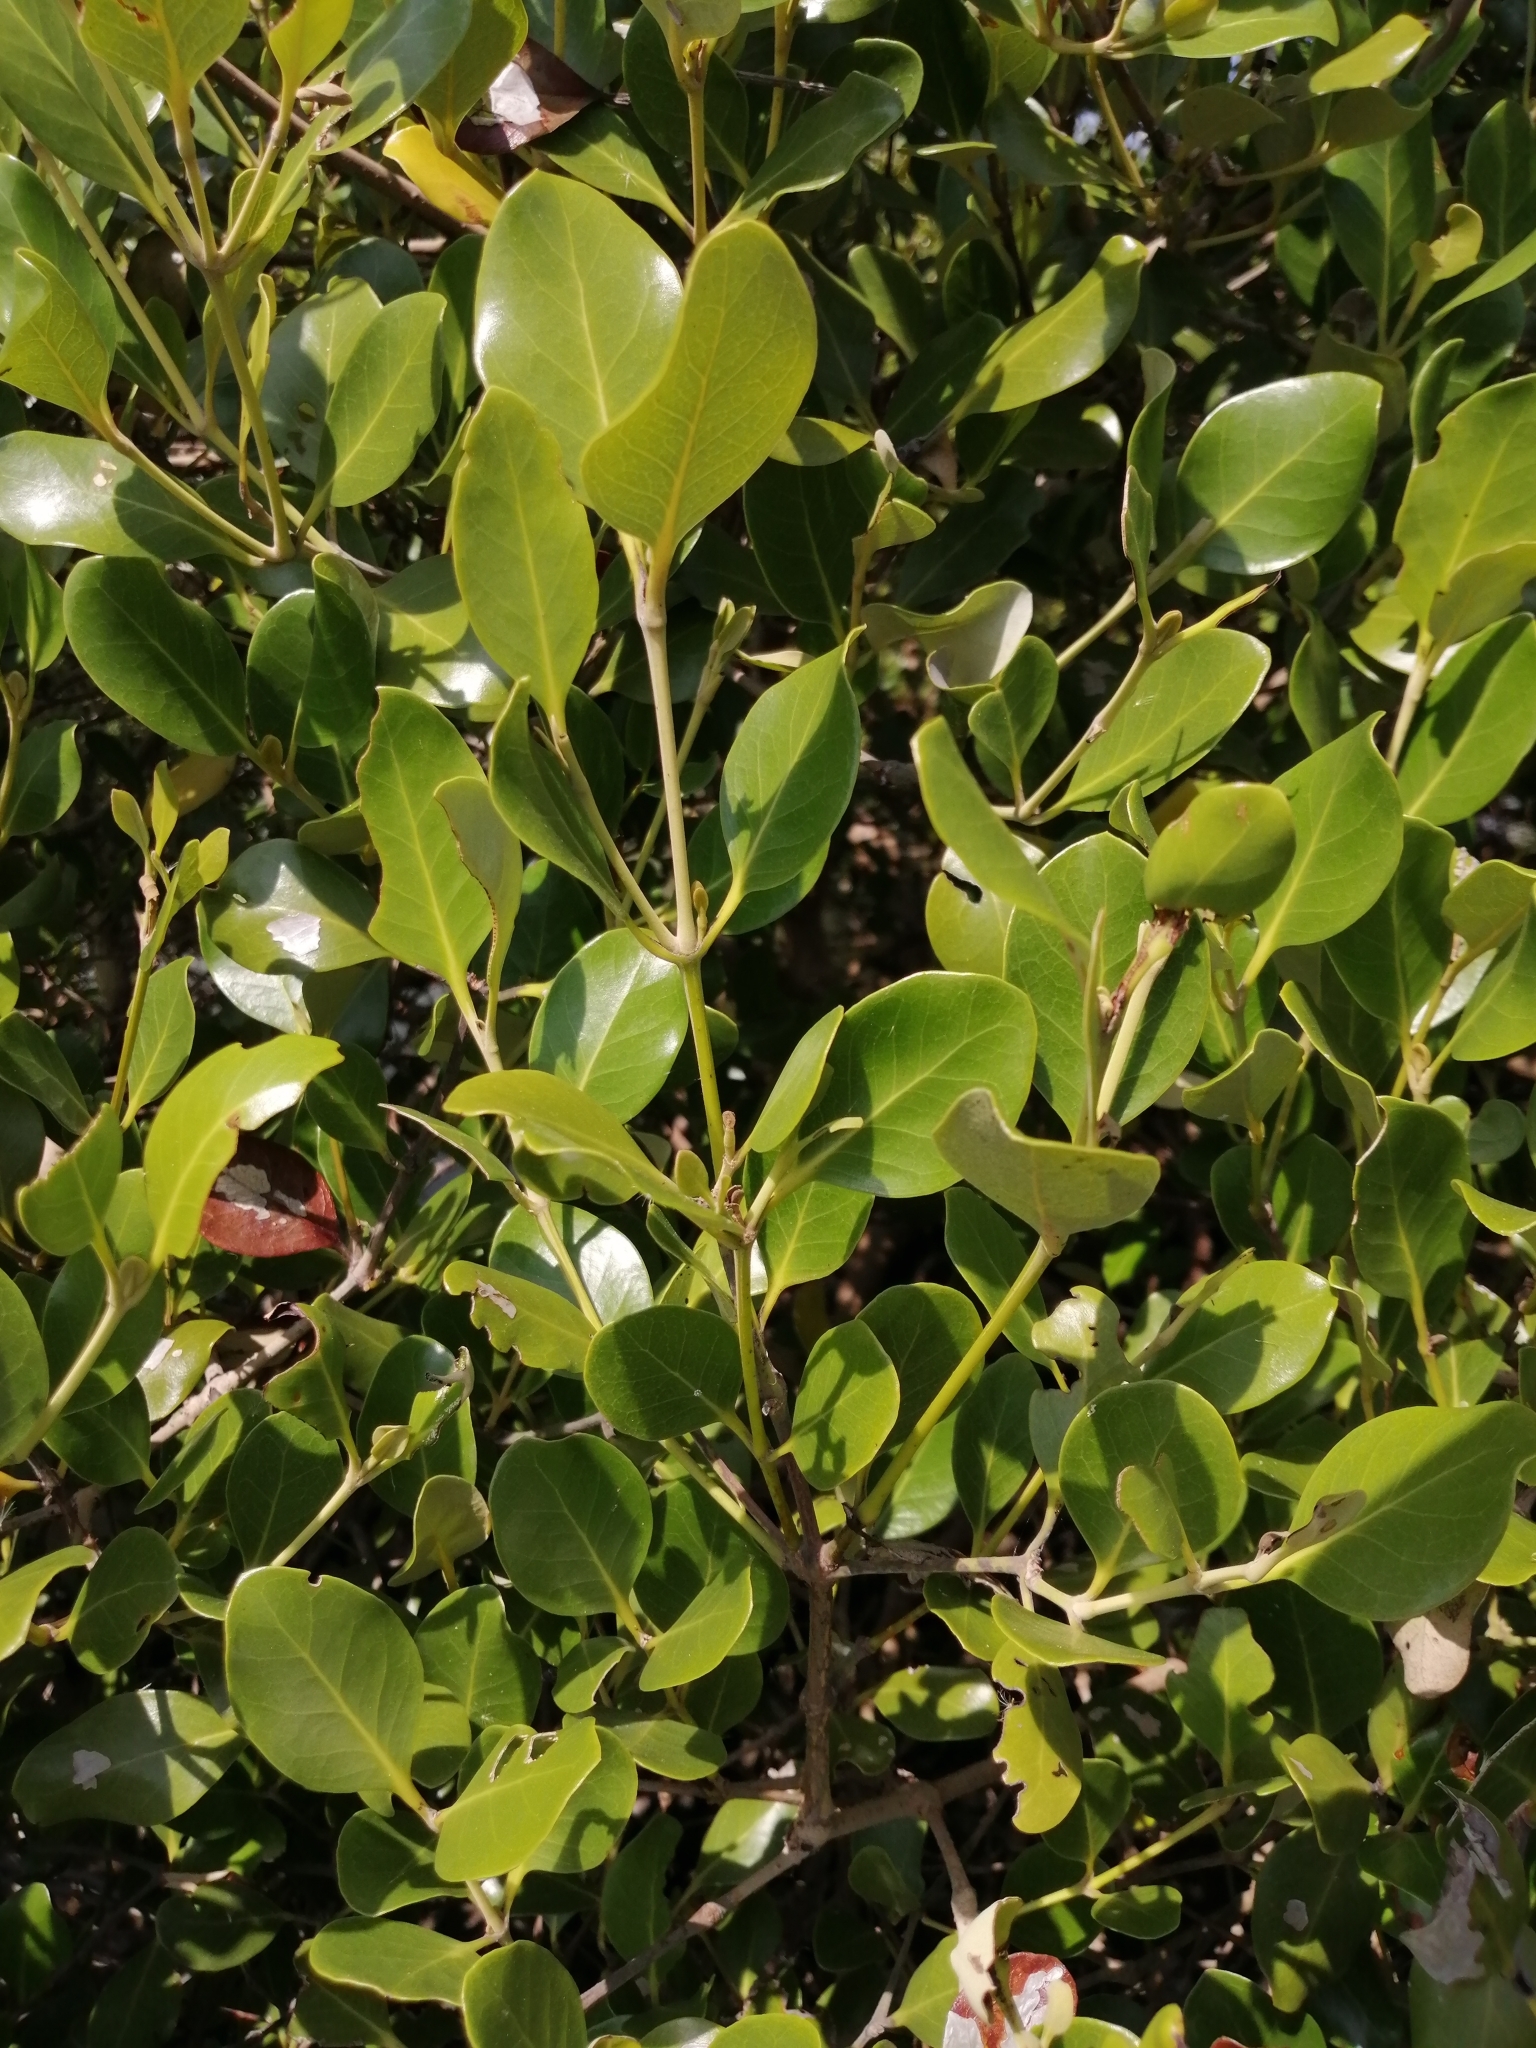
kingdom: Plantae
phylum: Tracheophyta
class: Magnoliopsida
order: Lamiales
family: Acanthaceae
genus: Avicennia
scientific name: Avicennia marina
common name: Gray mangrove
